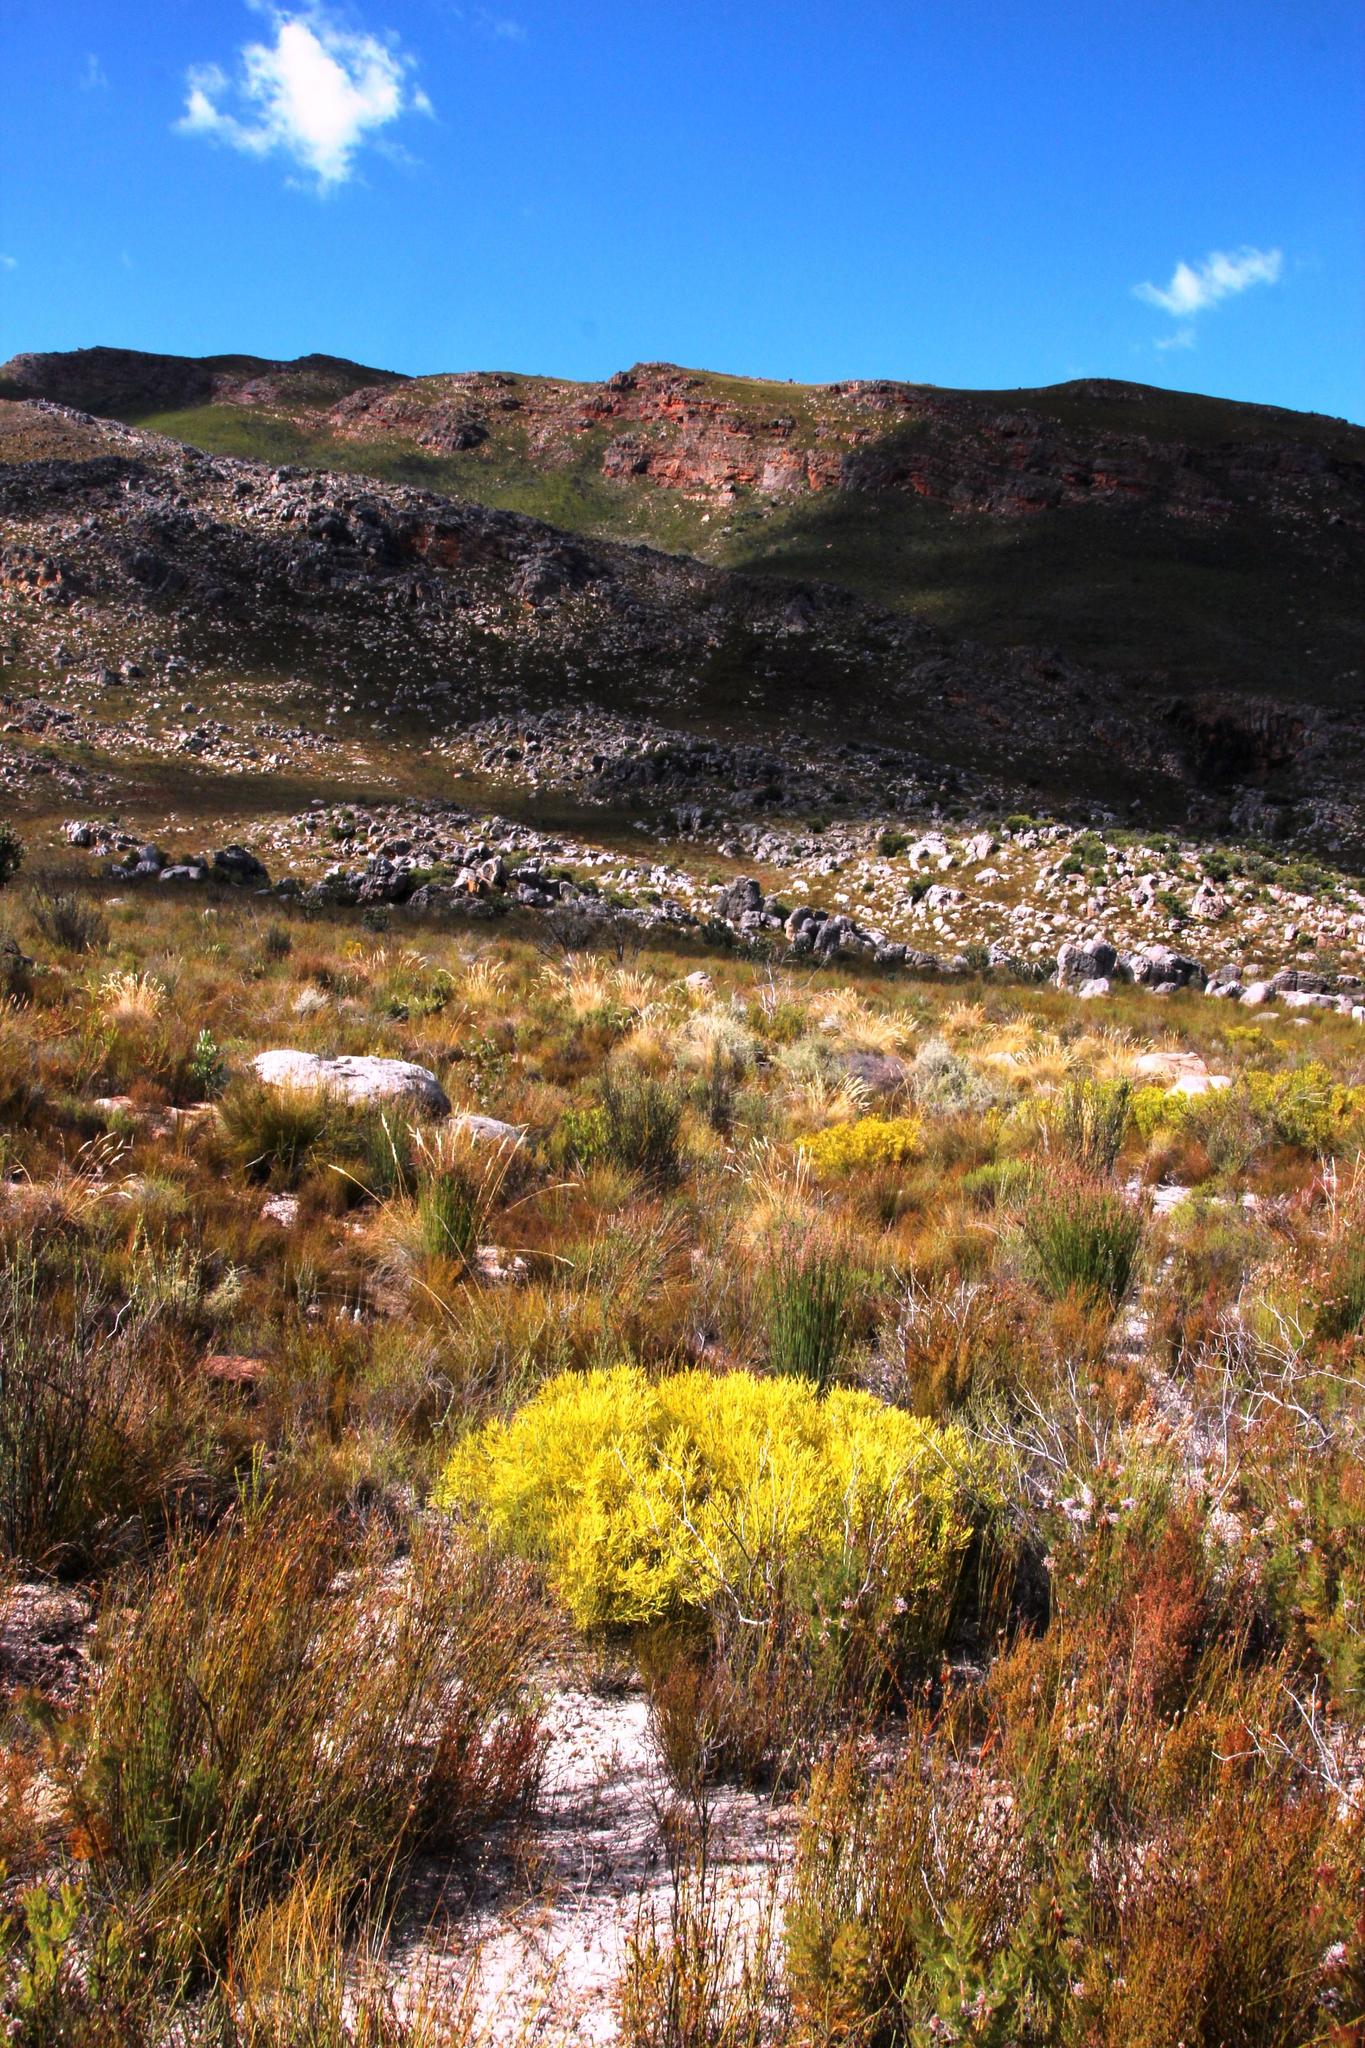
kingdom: Plantae
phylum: Tracheophyta
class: Magnoliopsida
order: Proteales
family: Proteaceae
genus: Leucadendron
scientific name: Leucadendron salignum
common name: Common sunshine conebush
